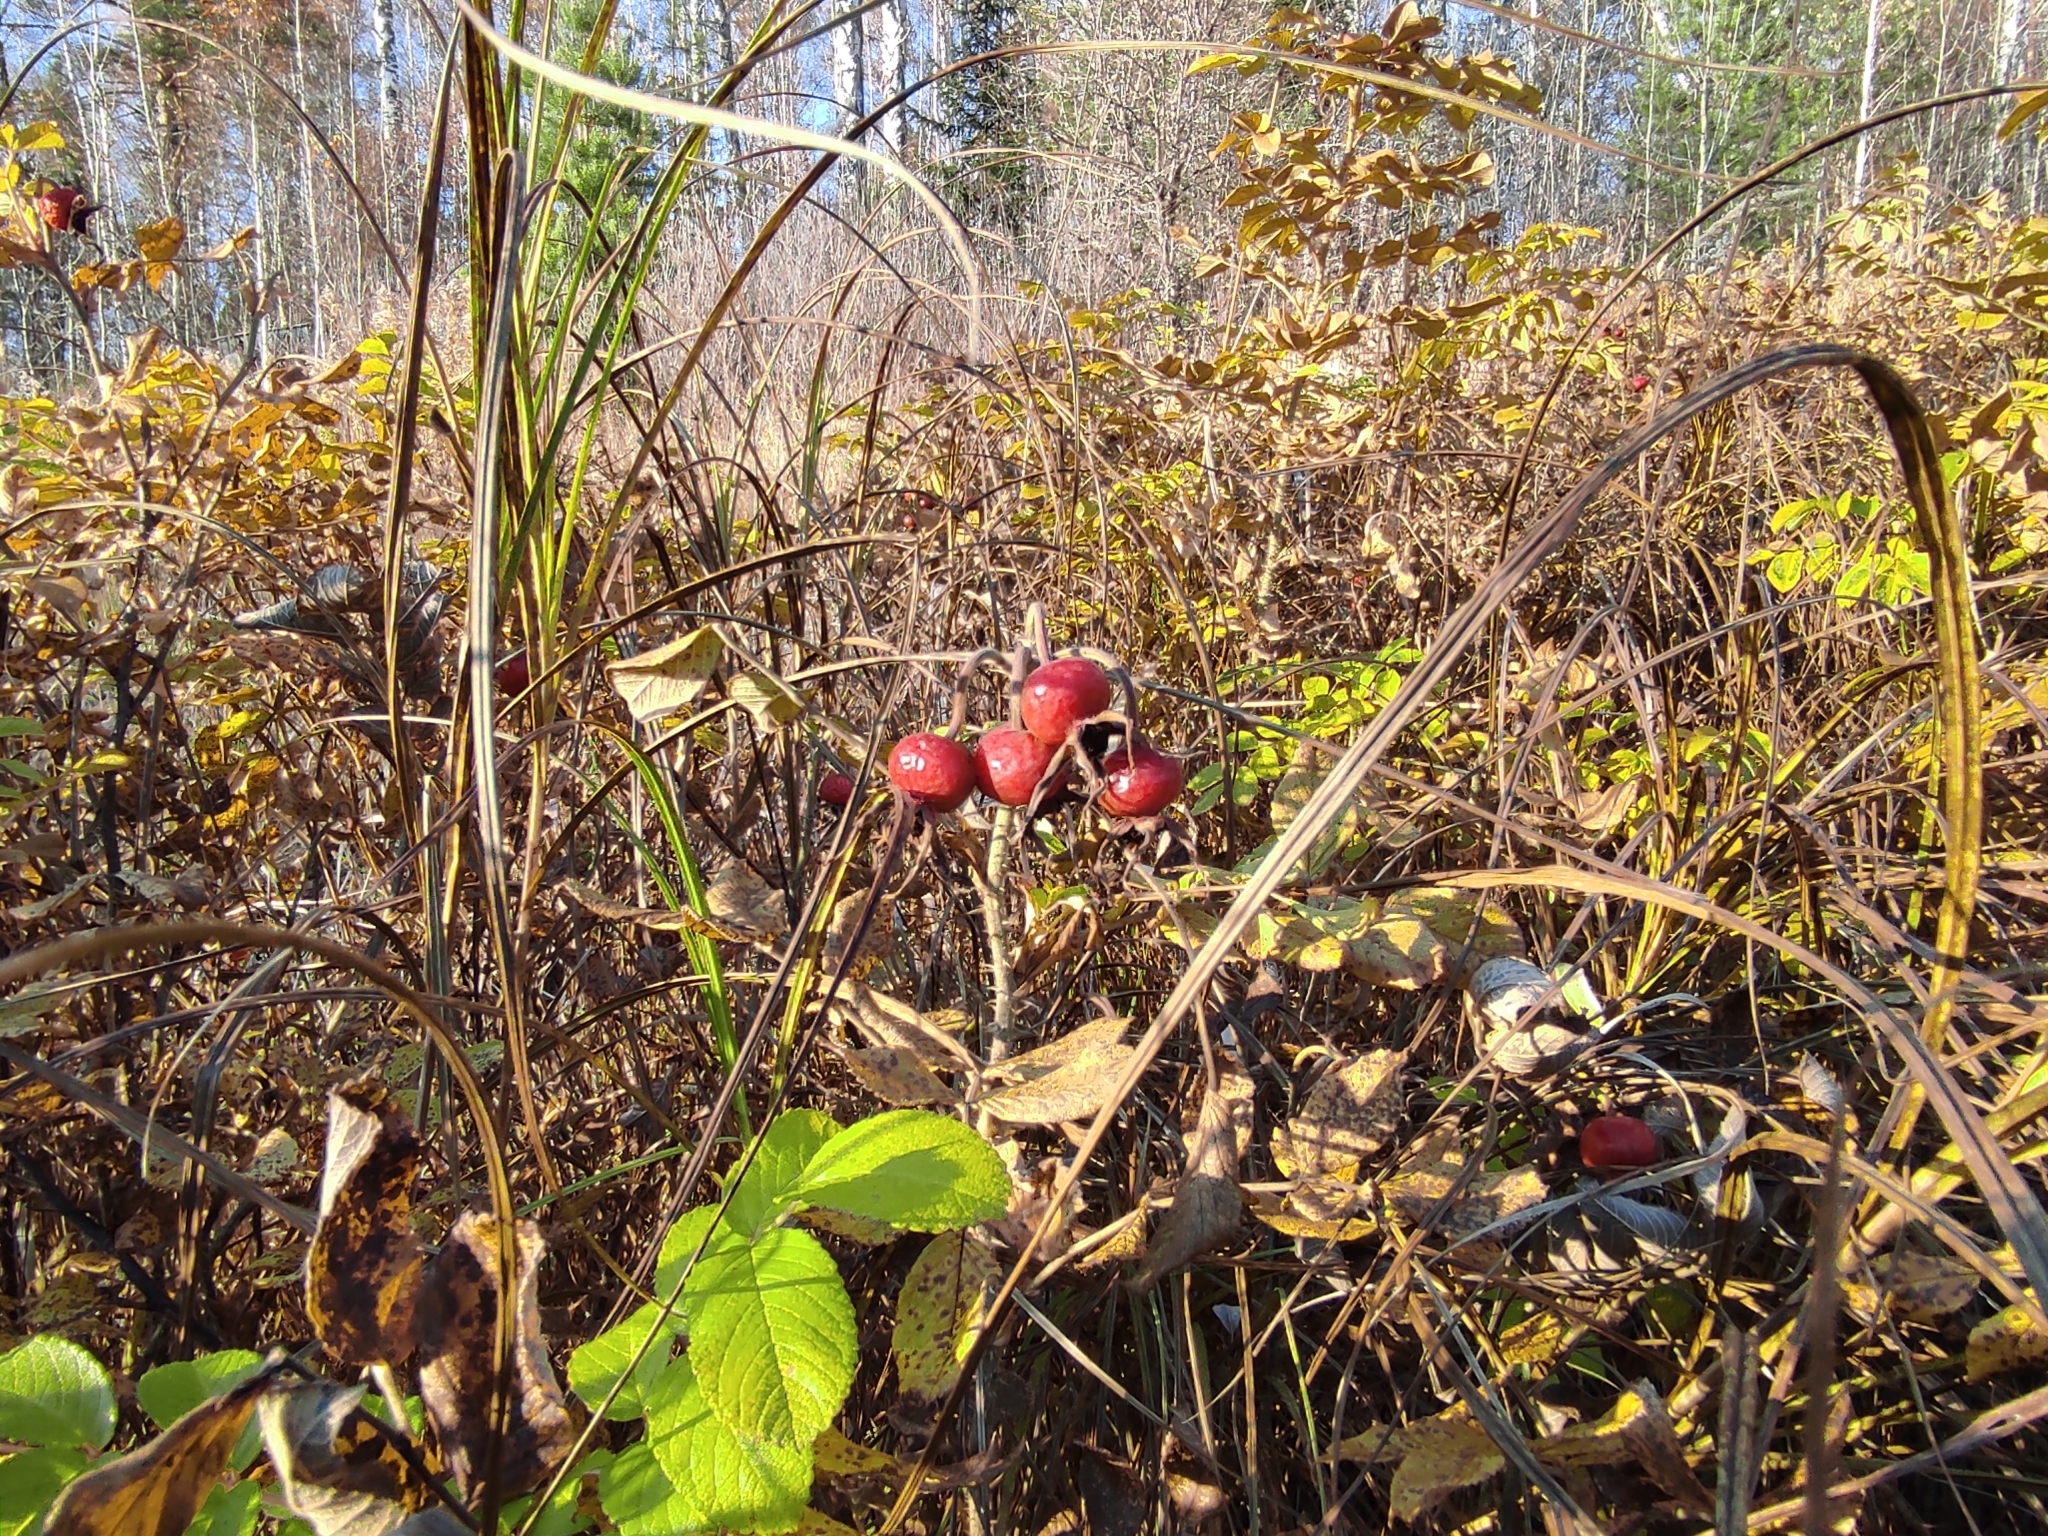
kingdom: Plantae
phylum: Tracheophyta
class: Magnoliopsida
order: Rosales
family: Rosaceae
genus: Rosa
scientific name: Rosa rugosa
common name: Japanese rose
